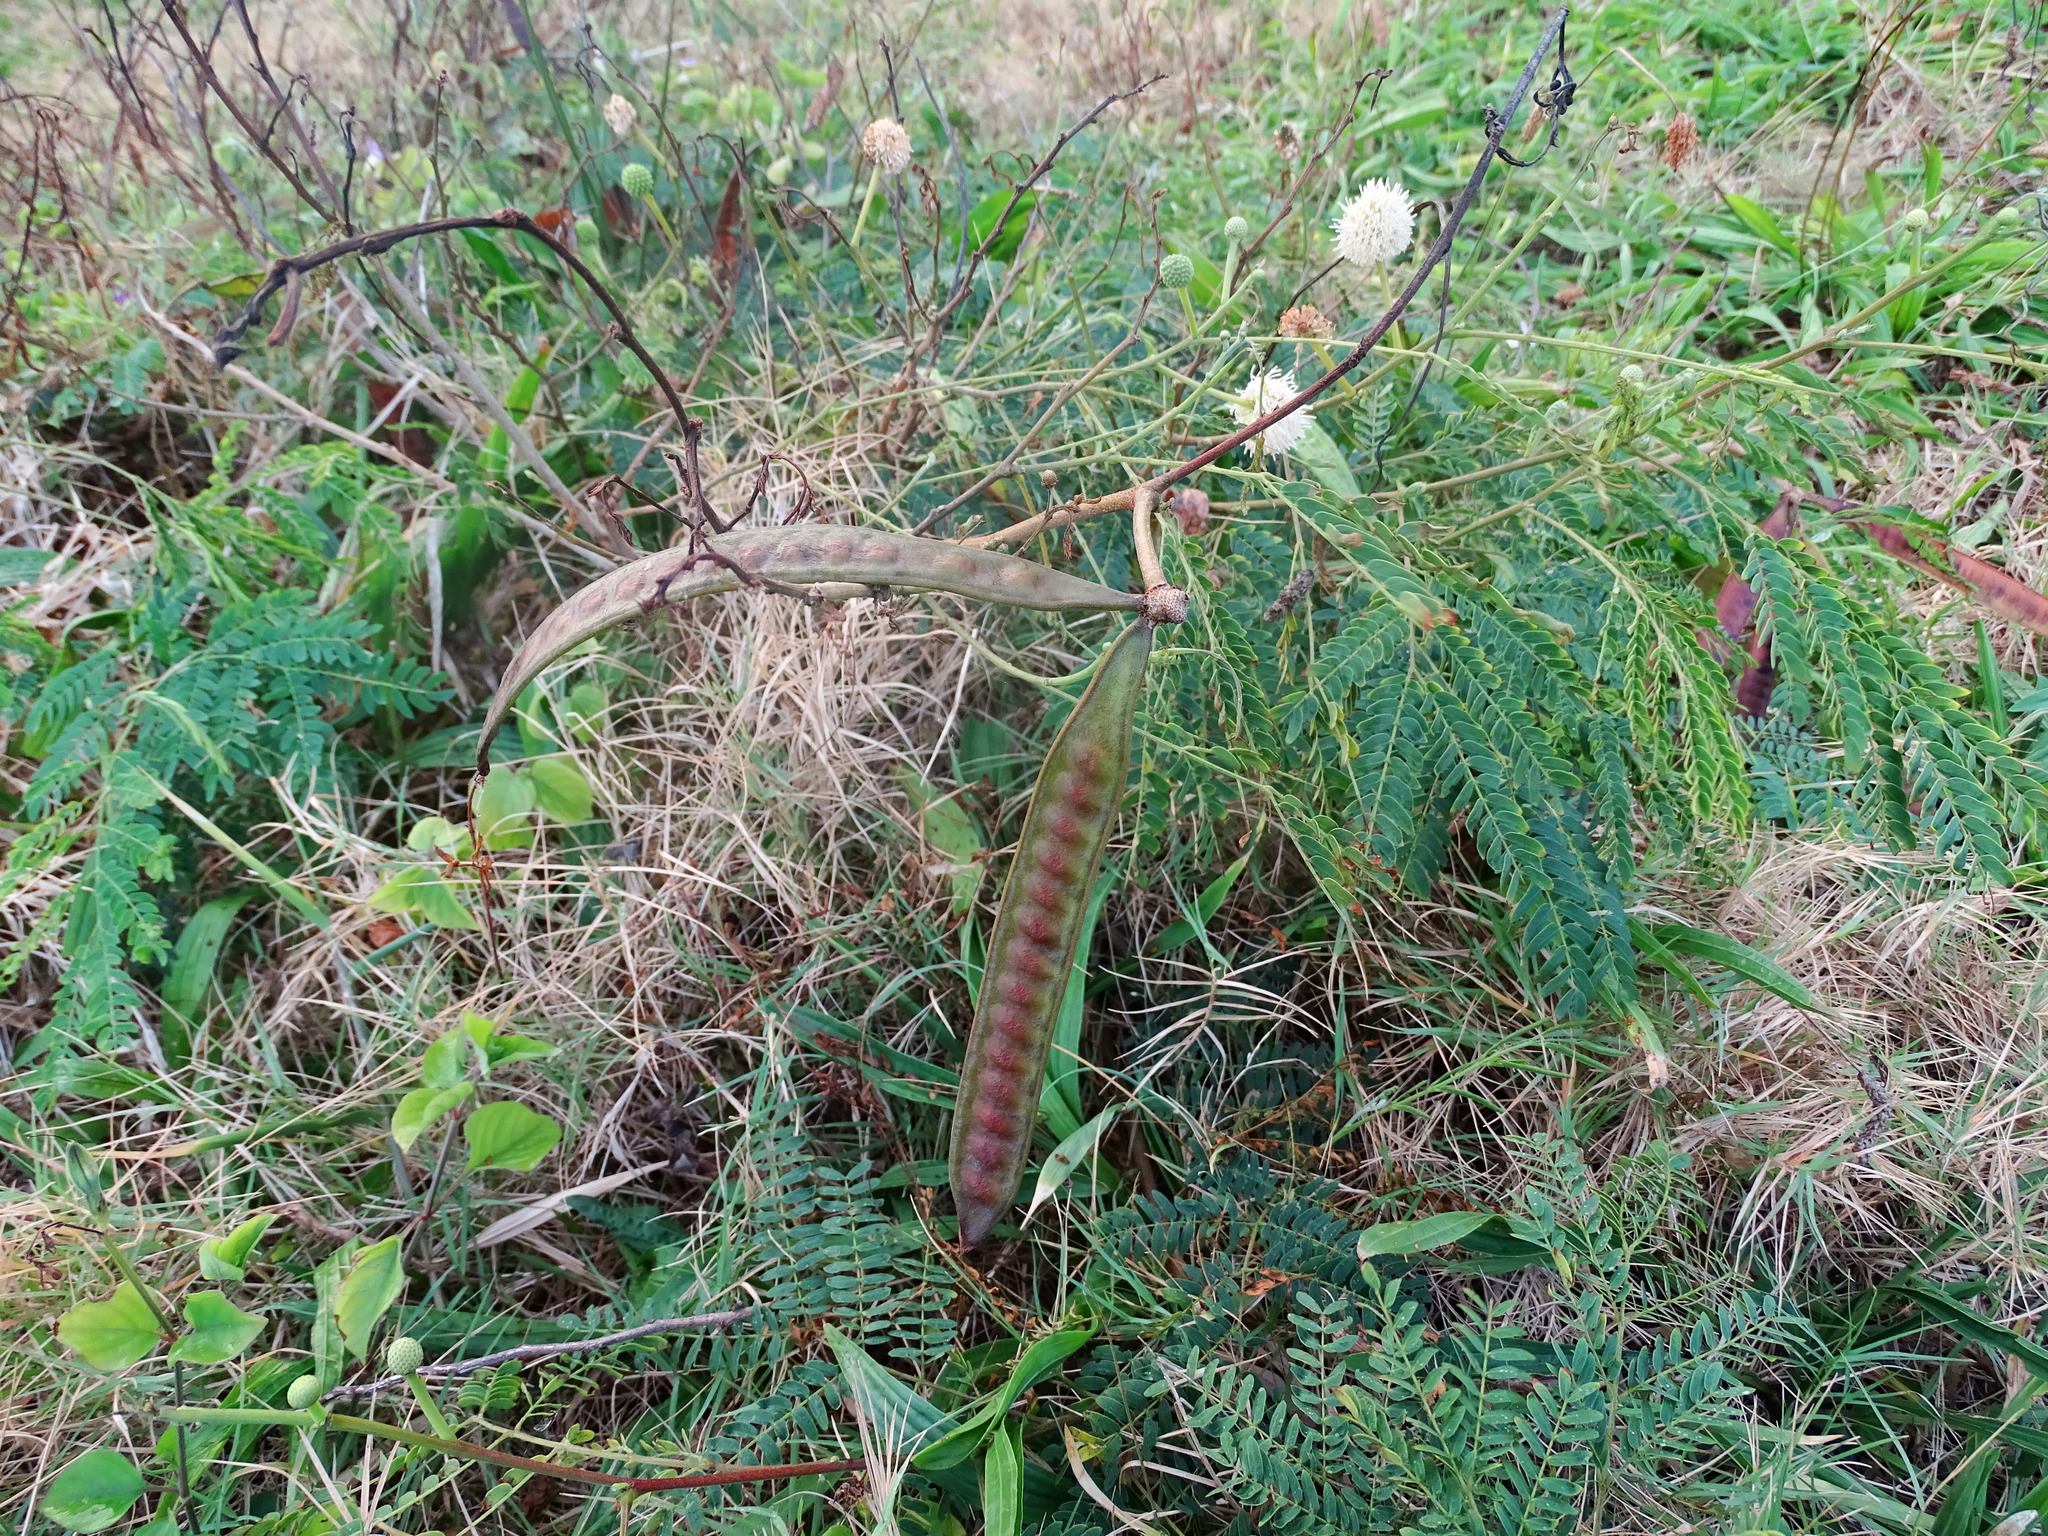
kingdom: Plantae
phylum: Tracheophyta
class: Magnoliopsida
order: Fabales
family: Fabaceae
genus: Leucaena
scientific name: Leucaena leucocephala
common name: White leadtree
